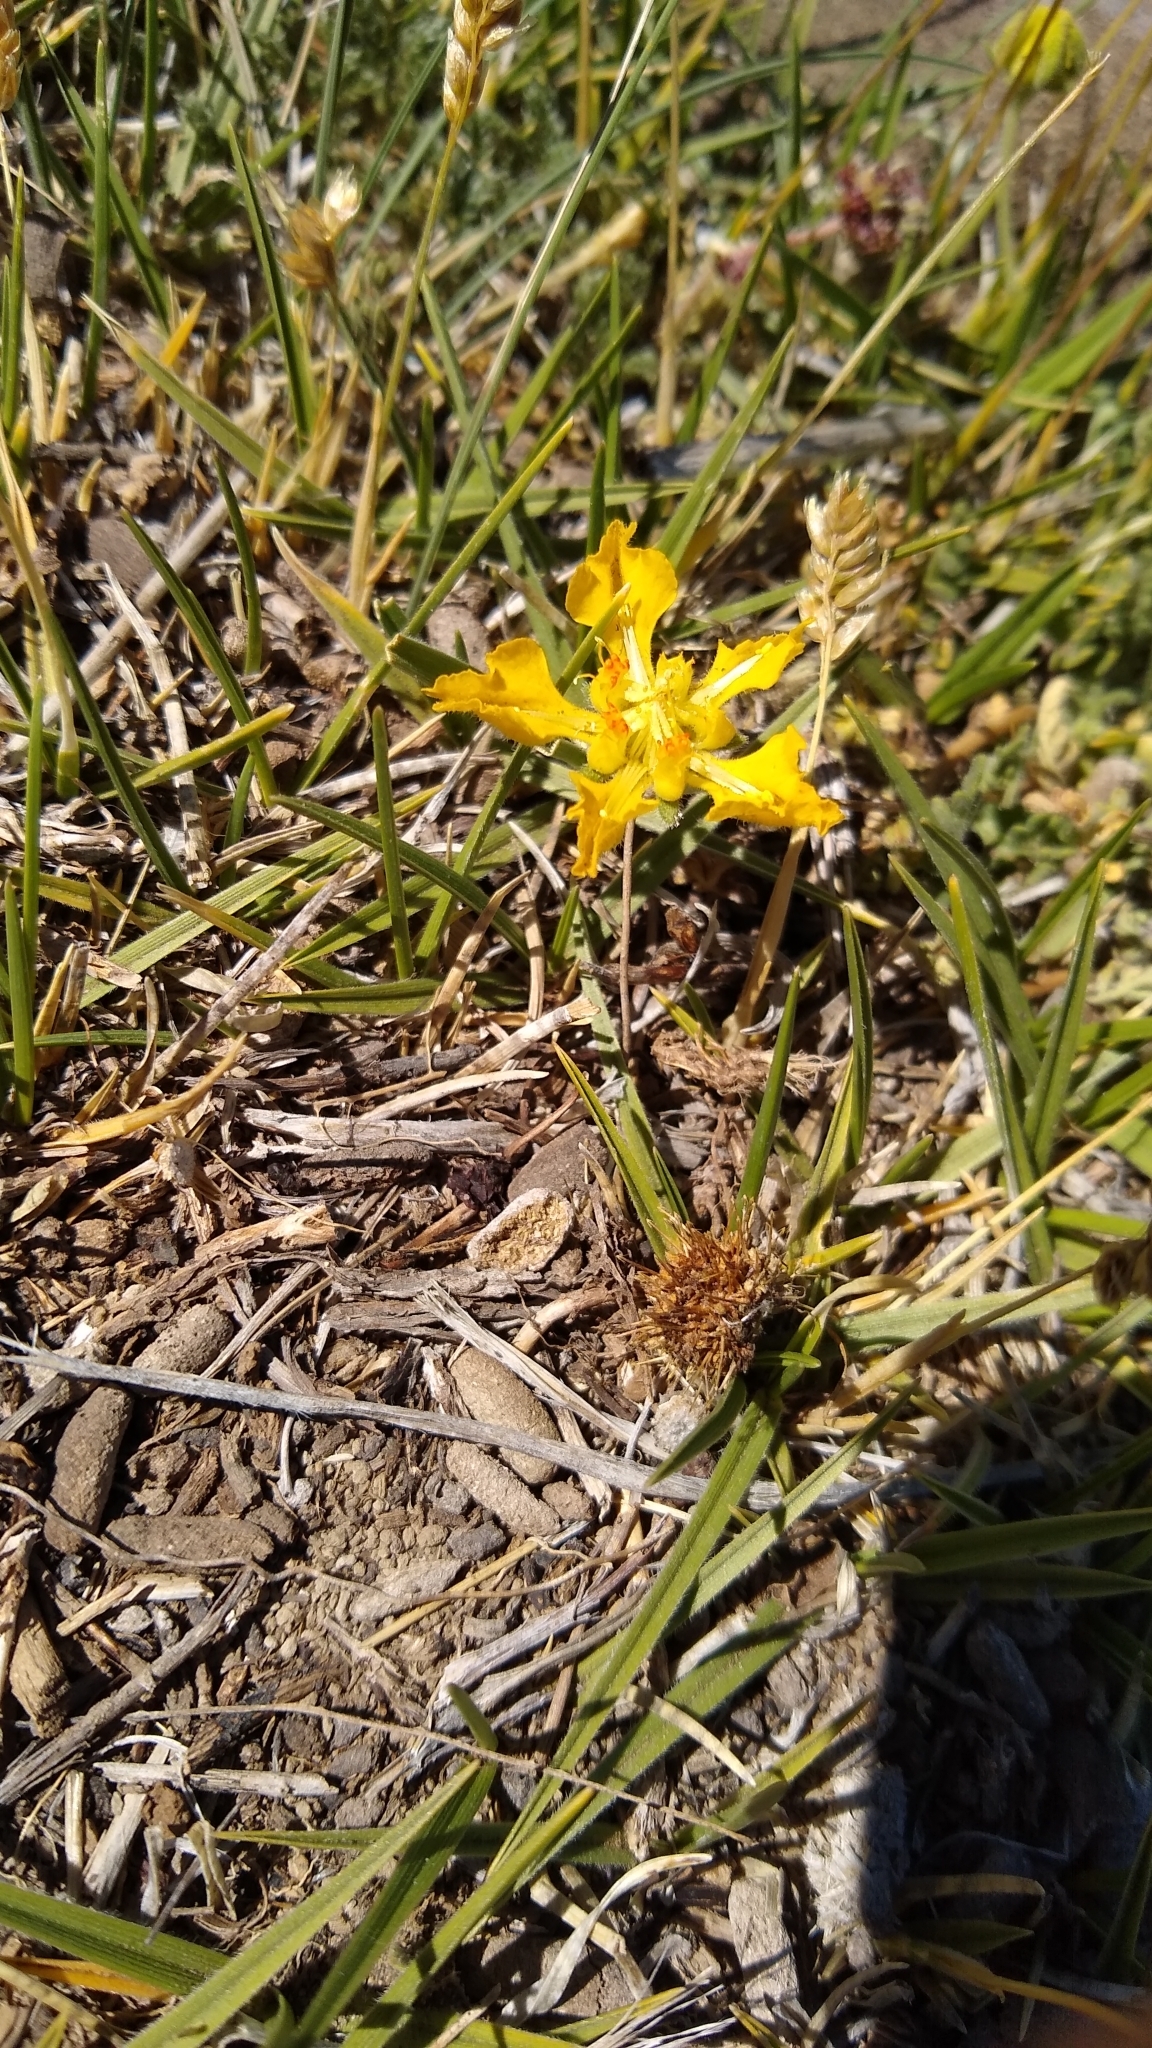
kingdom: Plantae
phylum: Tracheophyta
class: Magnoliopsida
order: Cornales
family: Loasaceae
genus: Pinnasa
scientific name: Pinnasa bergii
